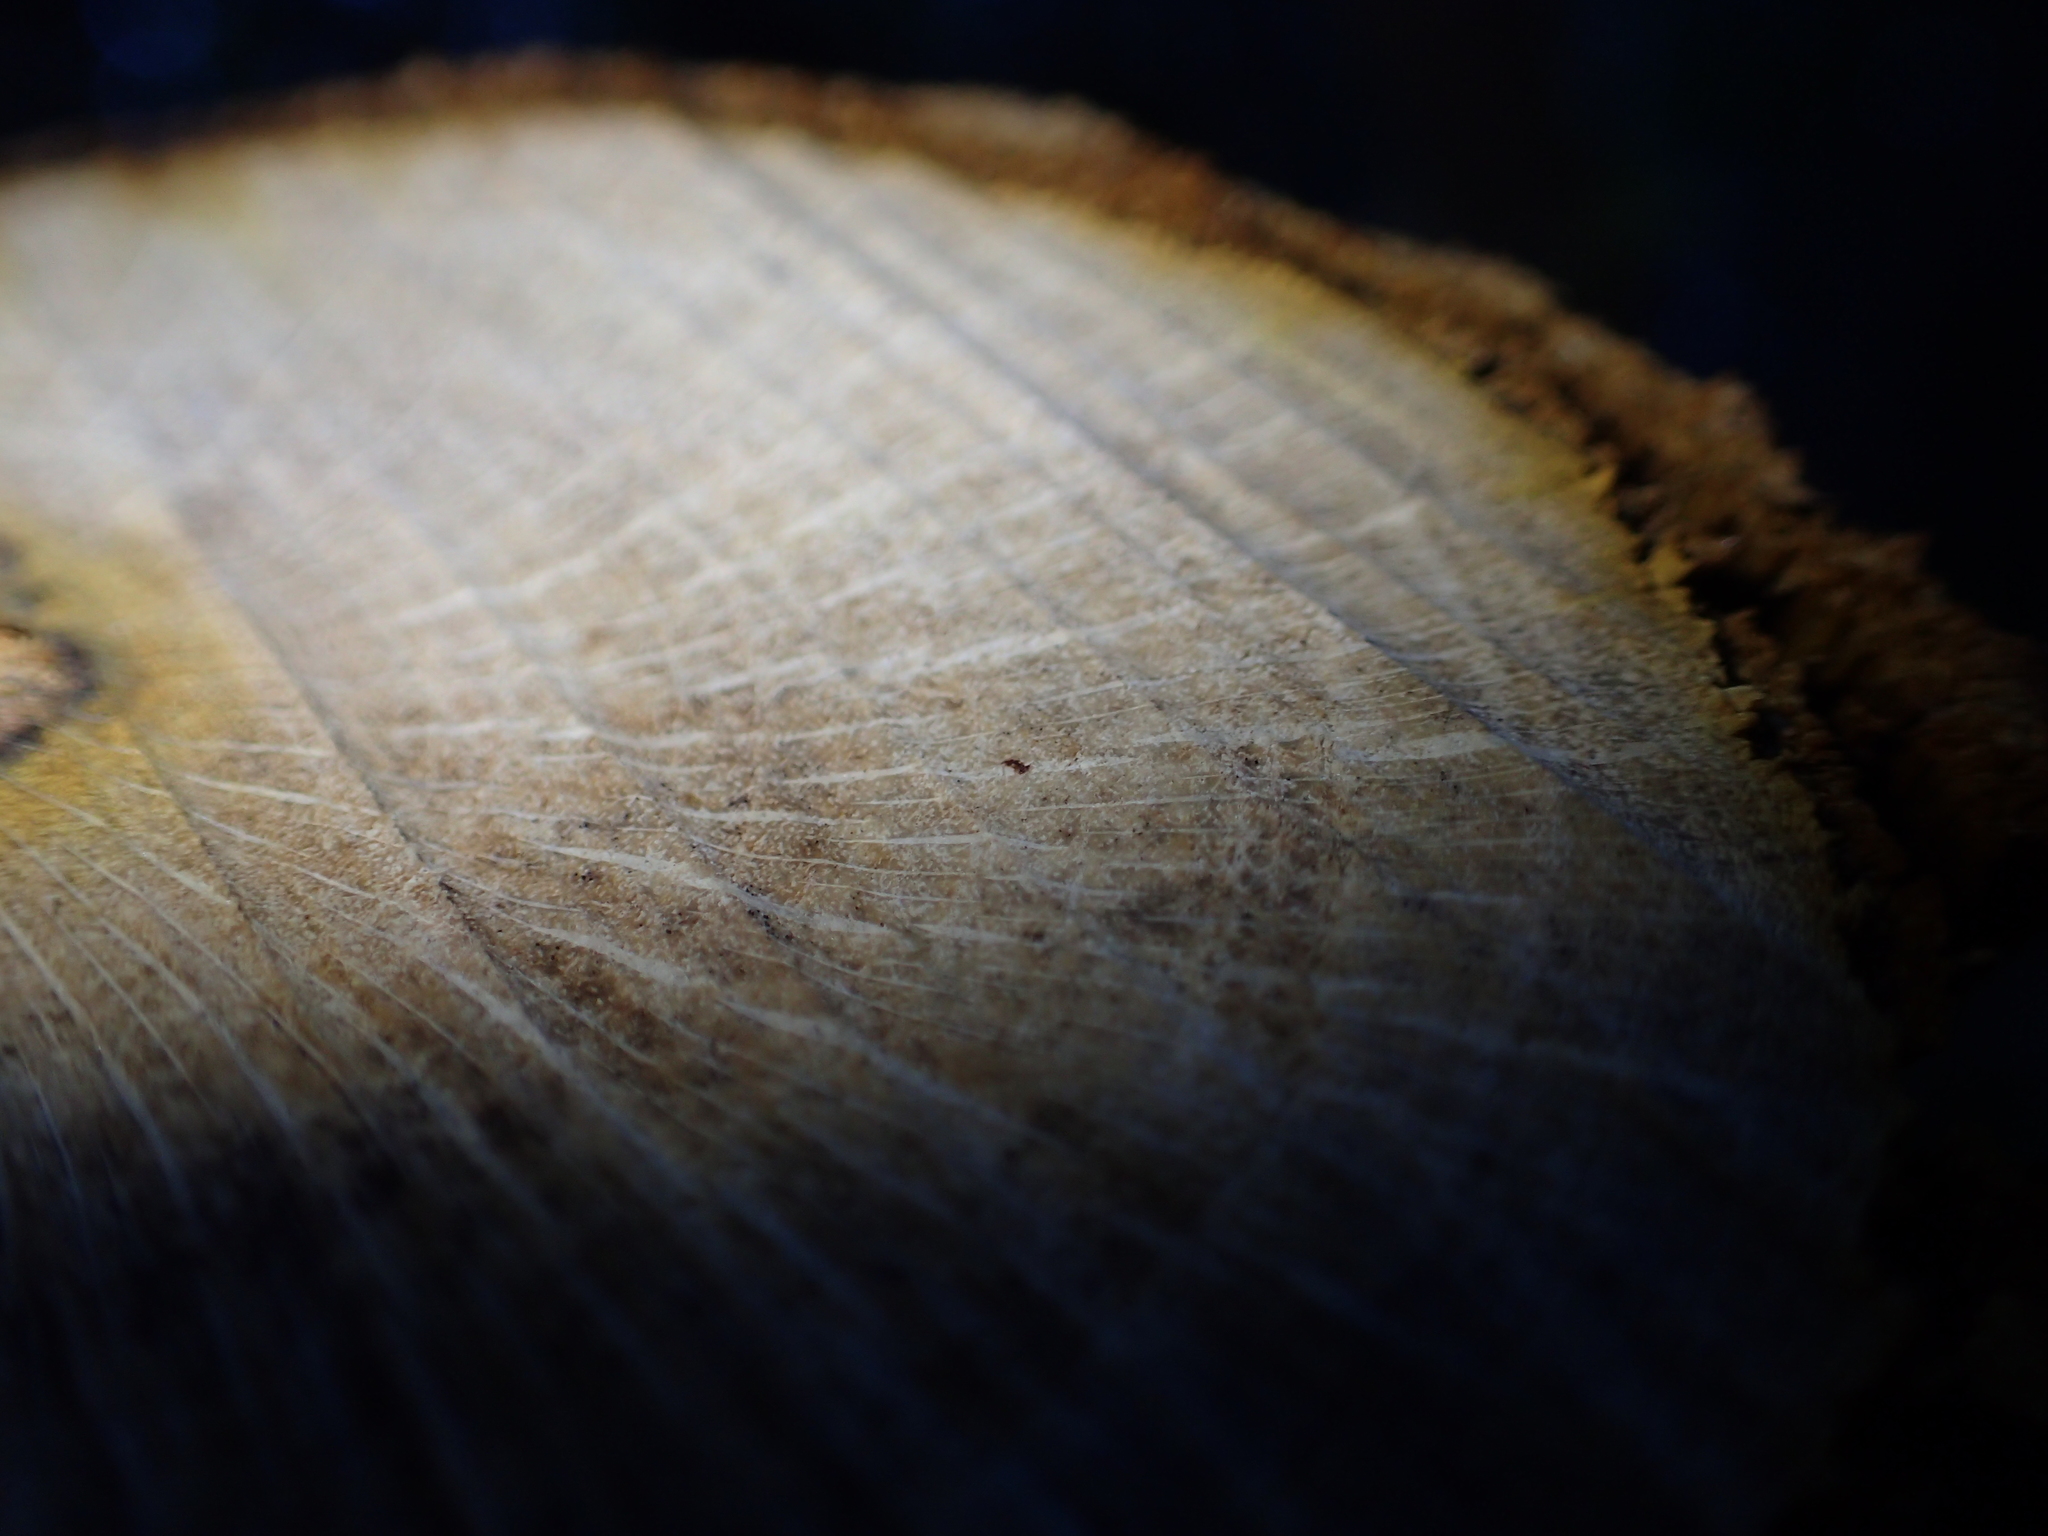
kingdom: Plantae
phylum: Tracheophyta
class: Magnoliopsida
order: Ranunculales
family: Berberidaceae
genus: Berberis
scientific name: Berberis darwinii
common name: Darwin's barberry
